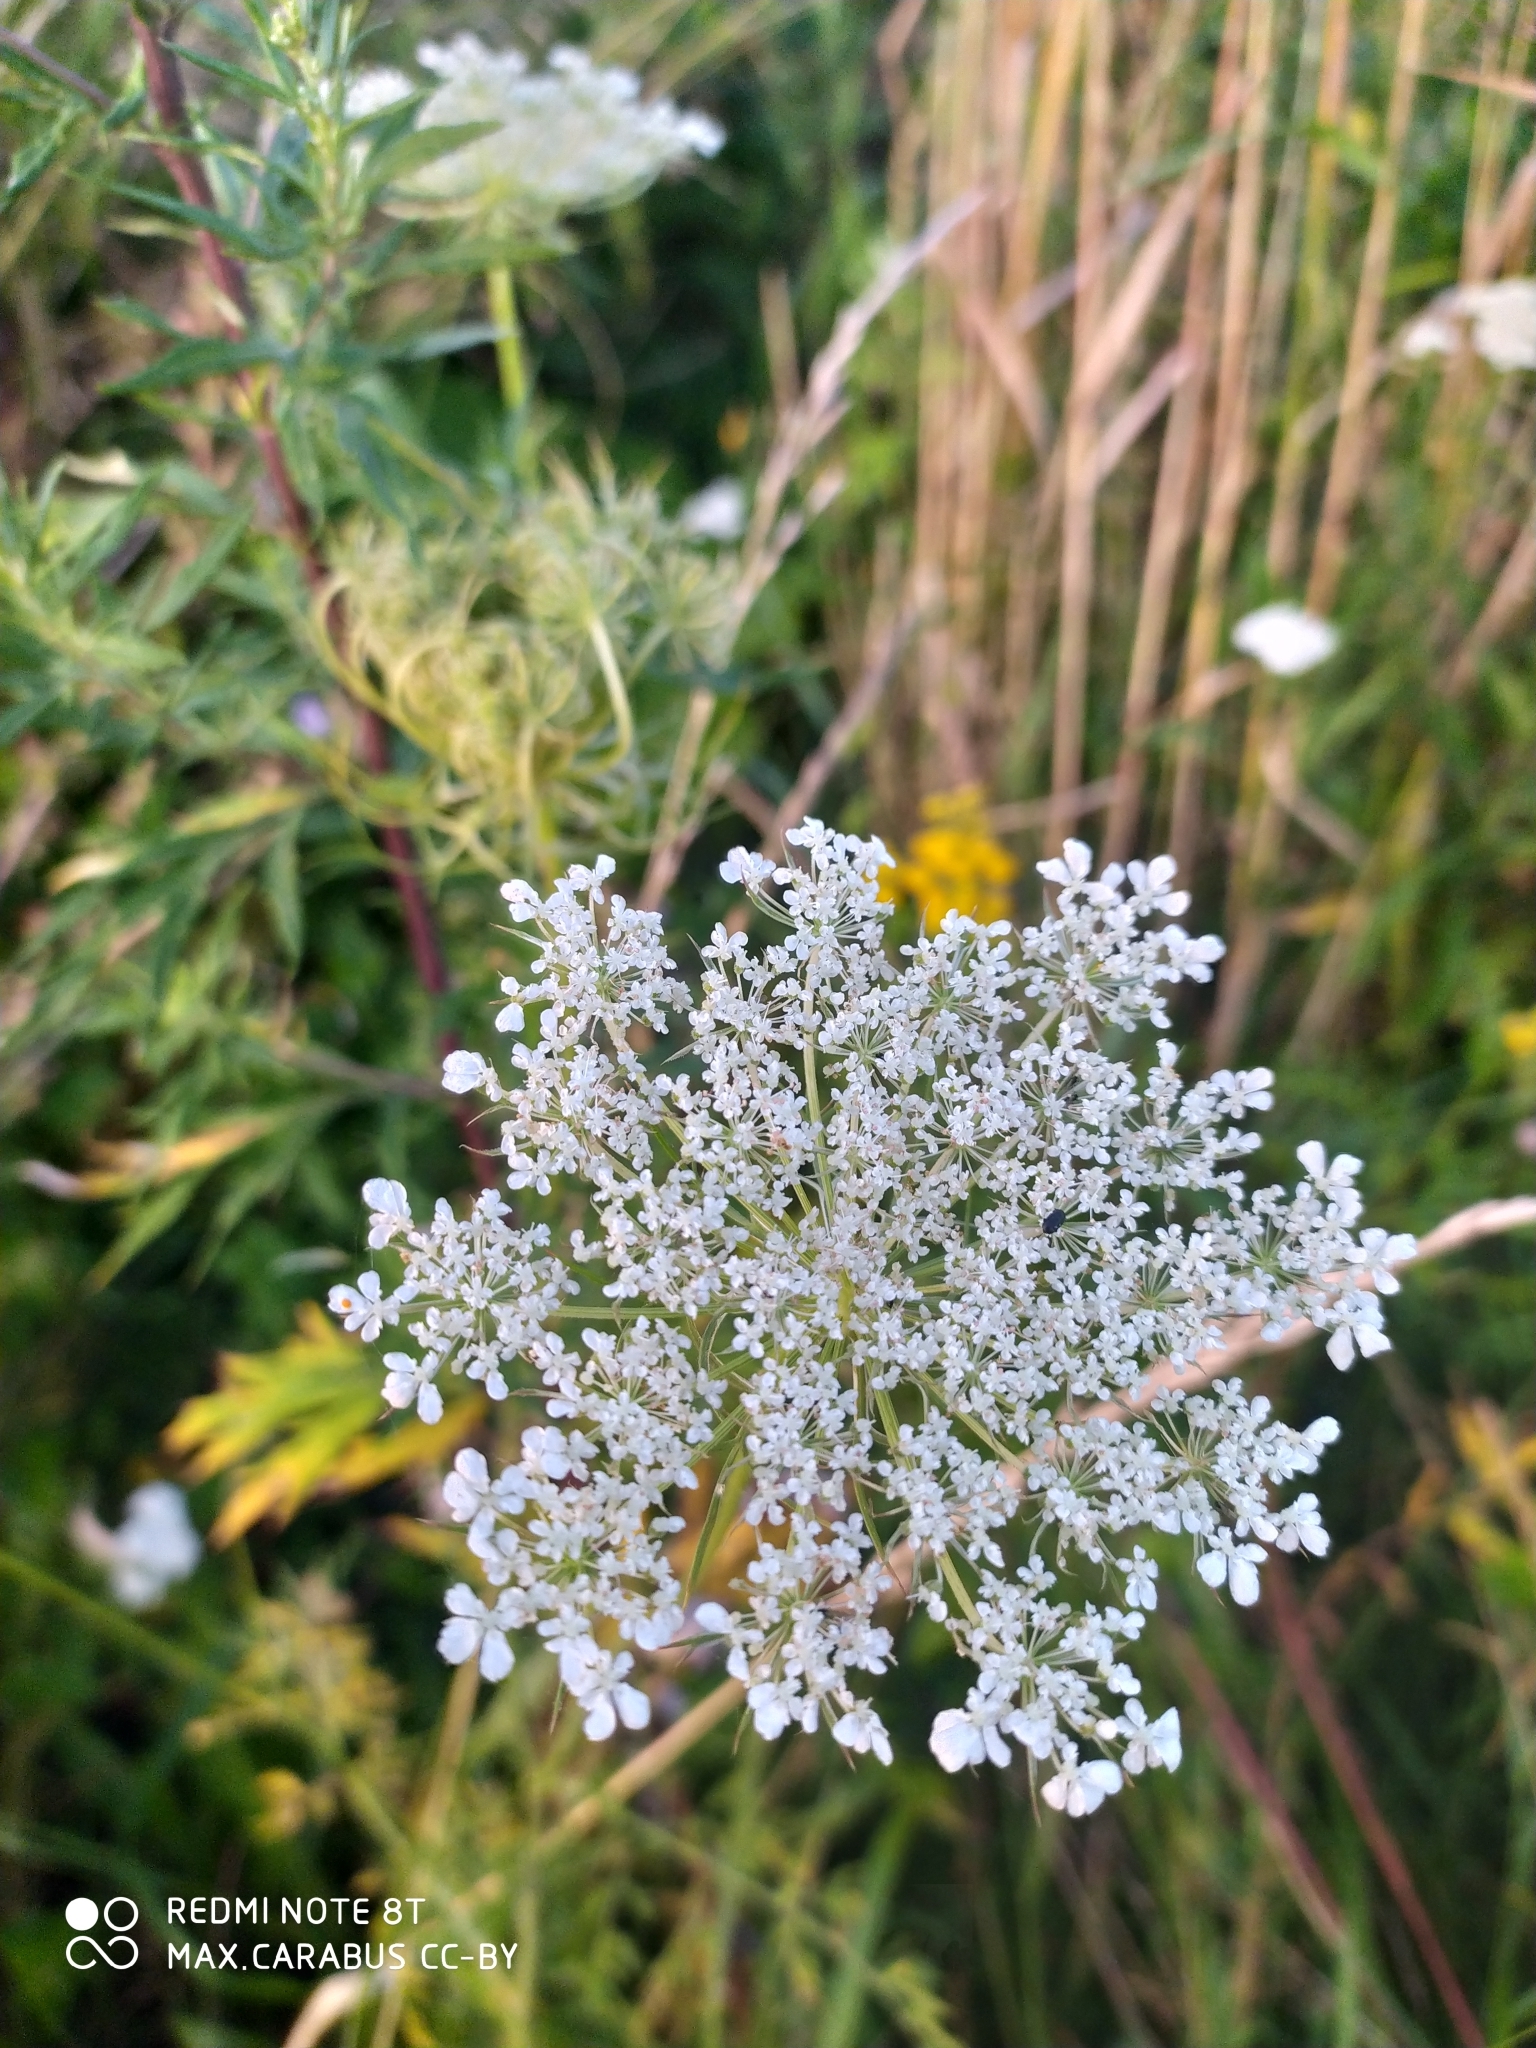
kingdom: Plantae
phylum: Tracheophyta
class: Magnoliopsida
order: Apiales
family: Apiaceae
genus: Daucus
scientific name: Daucus carota
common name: Wild carrot
